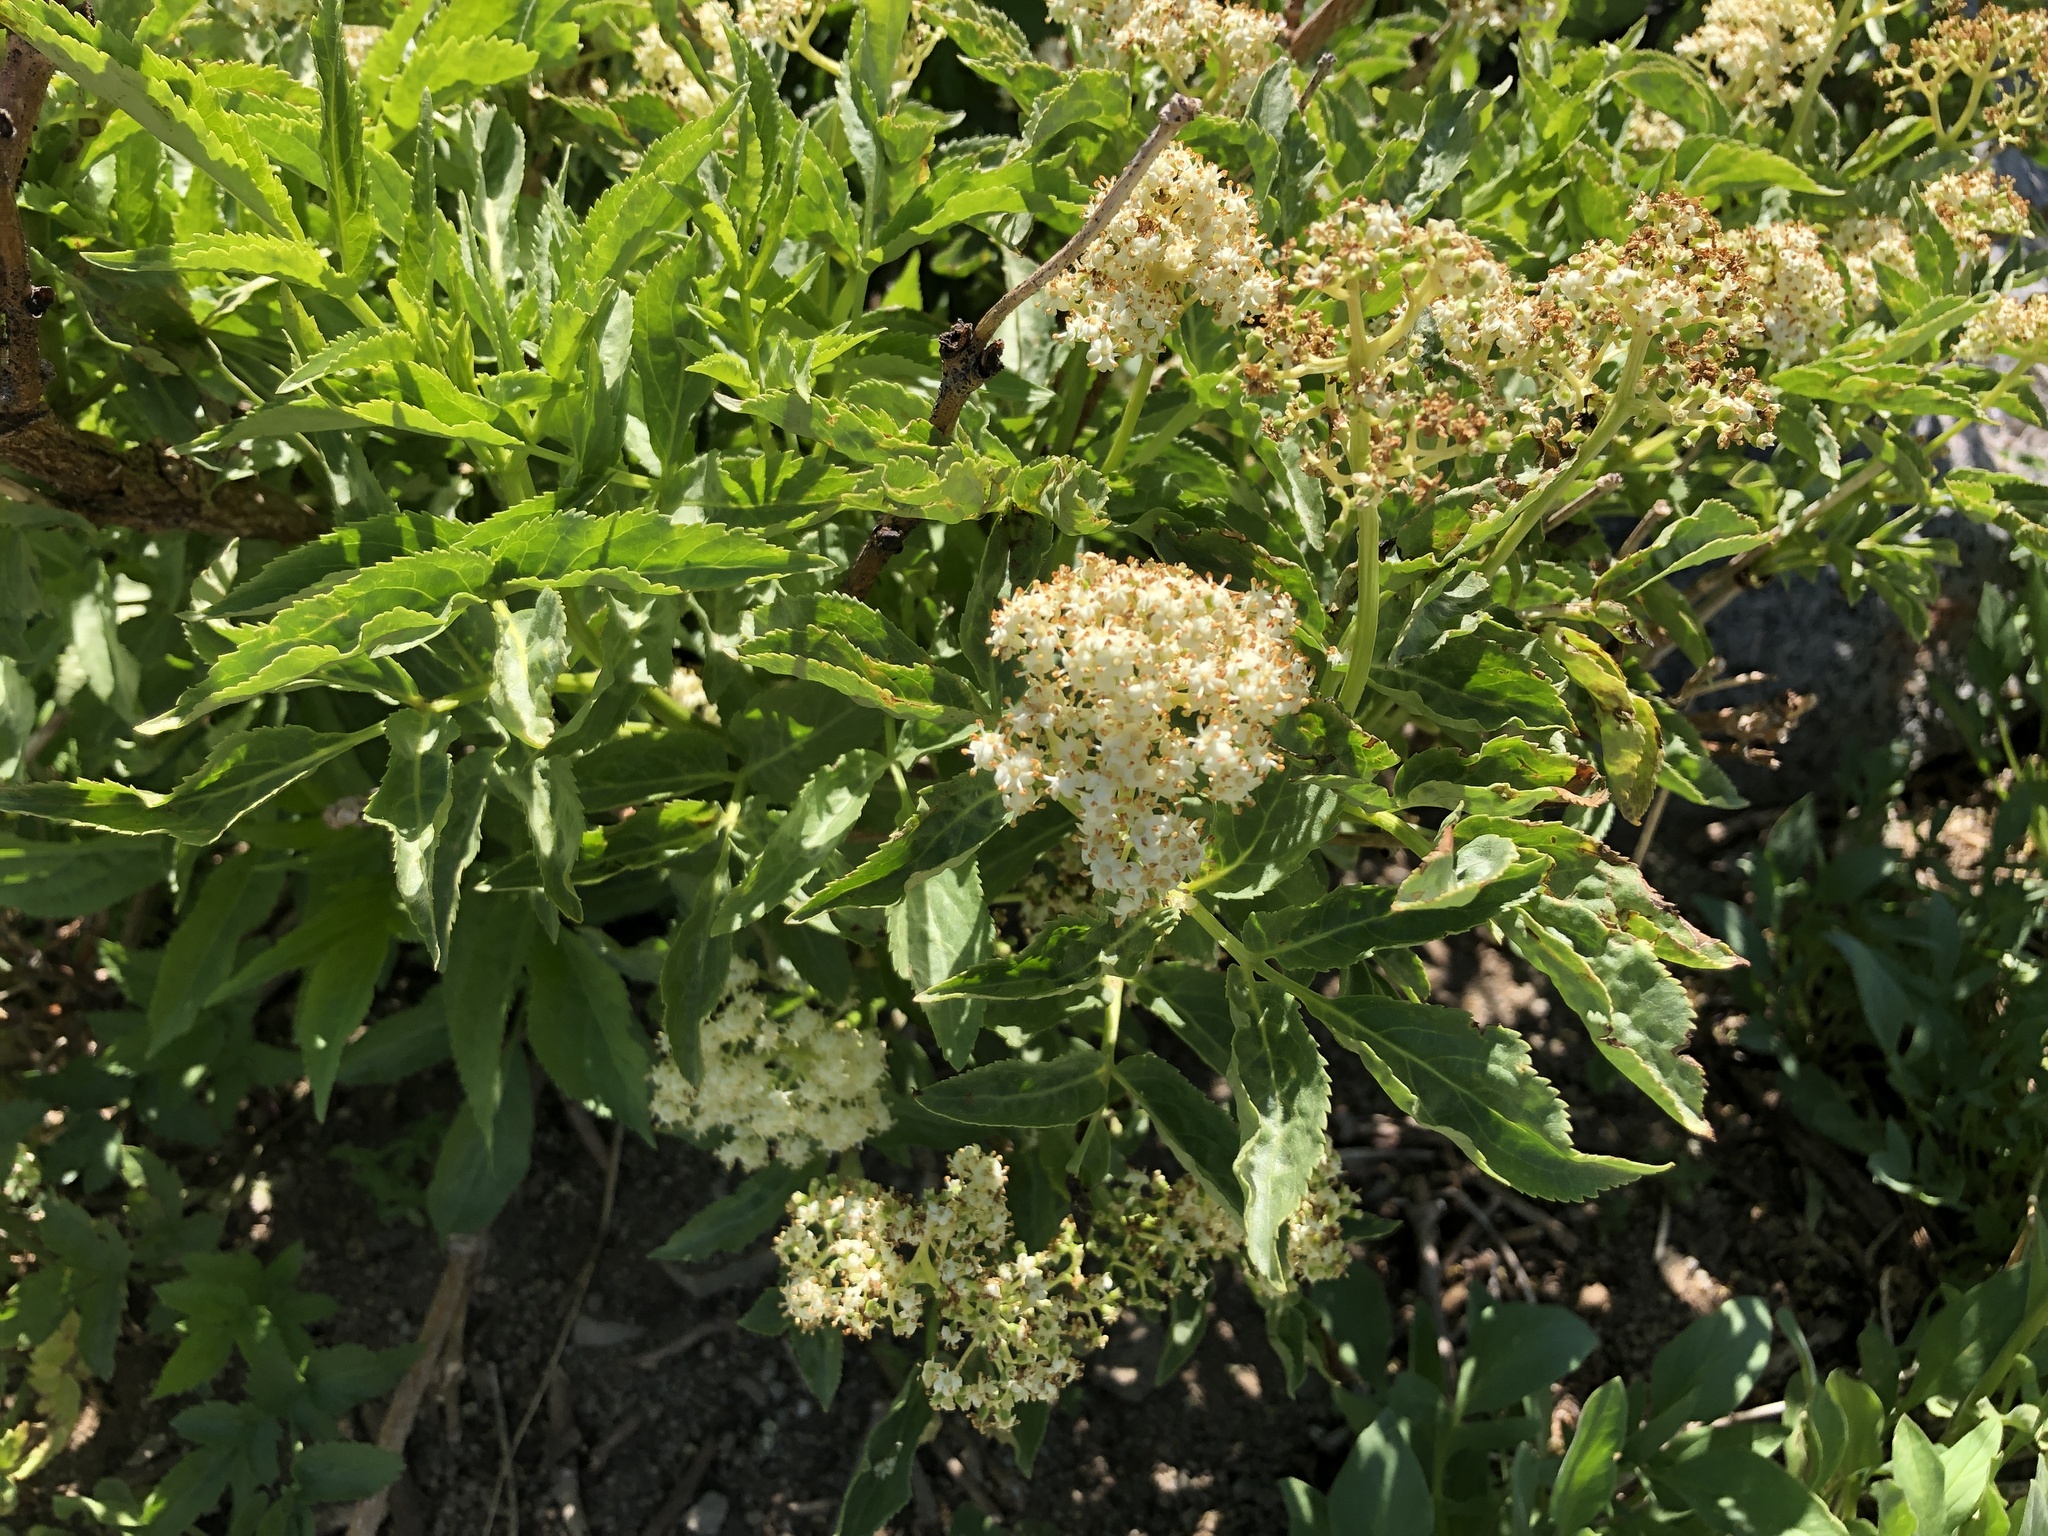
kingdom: Plantae
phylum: Tracheophyta
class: Magnoliopsida
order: Dipsacales
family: Viburnaceae
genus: Sambucus
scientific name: Sambucus racemosa
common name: Red-berried elder
